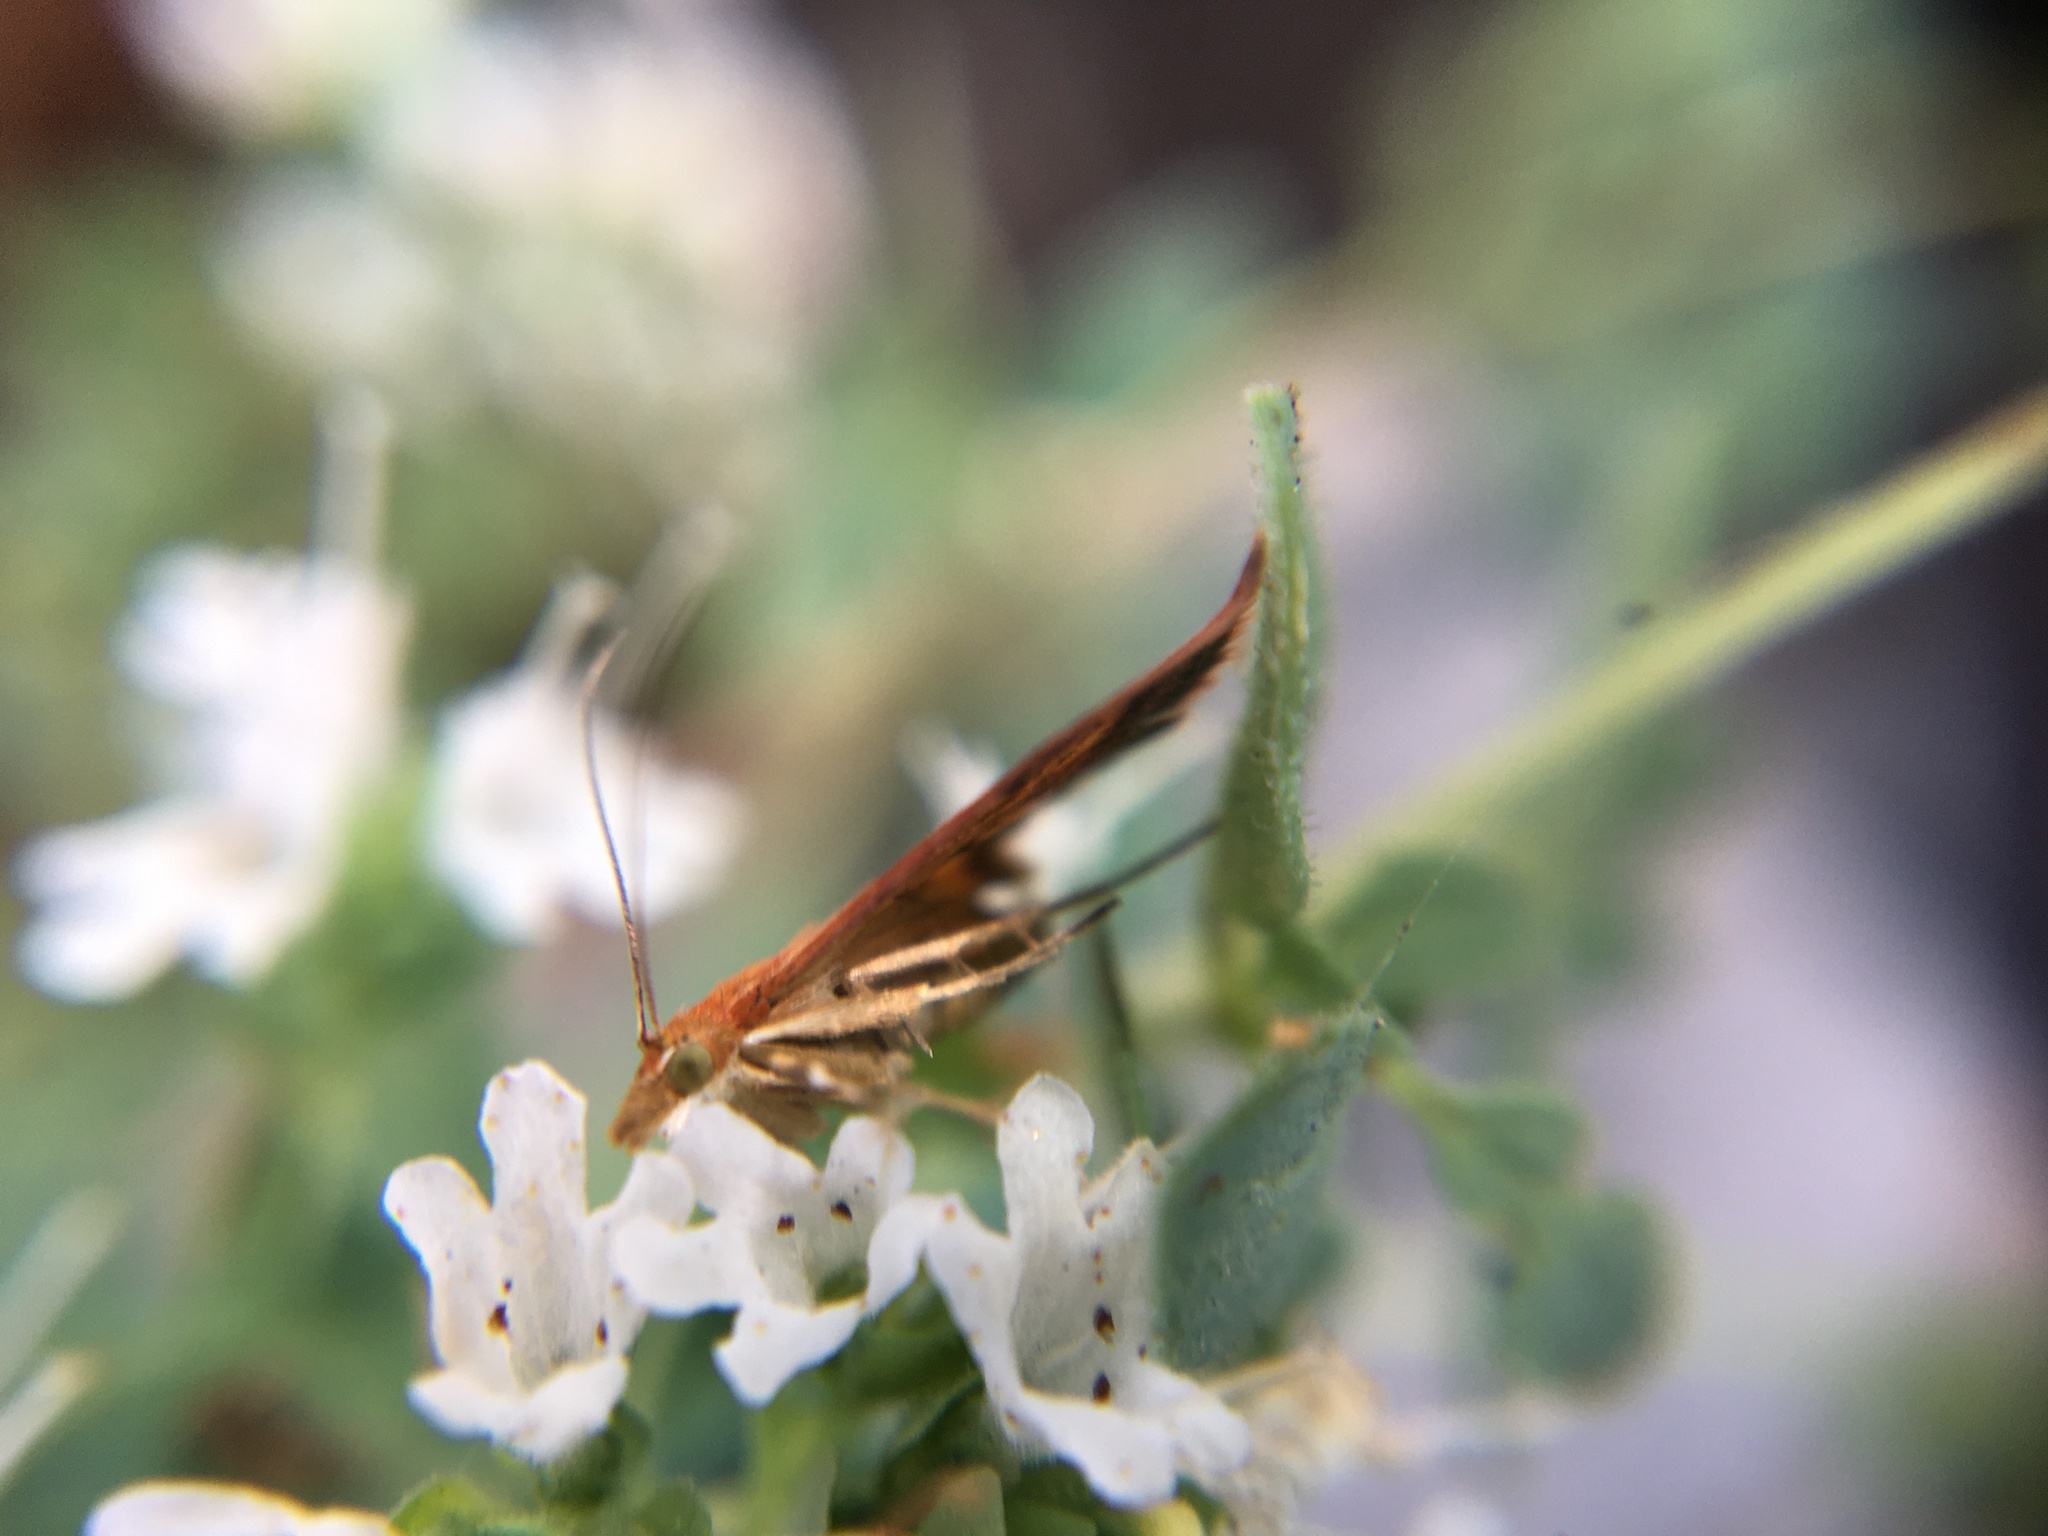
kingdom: Animalia
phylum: Arthropoda
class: Insecta
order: Lepidoptera
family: Crambidae
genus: Pyrausta
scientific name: Pyrausta californicalis
